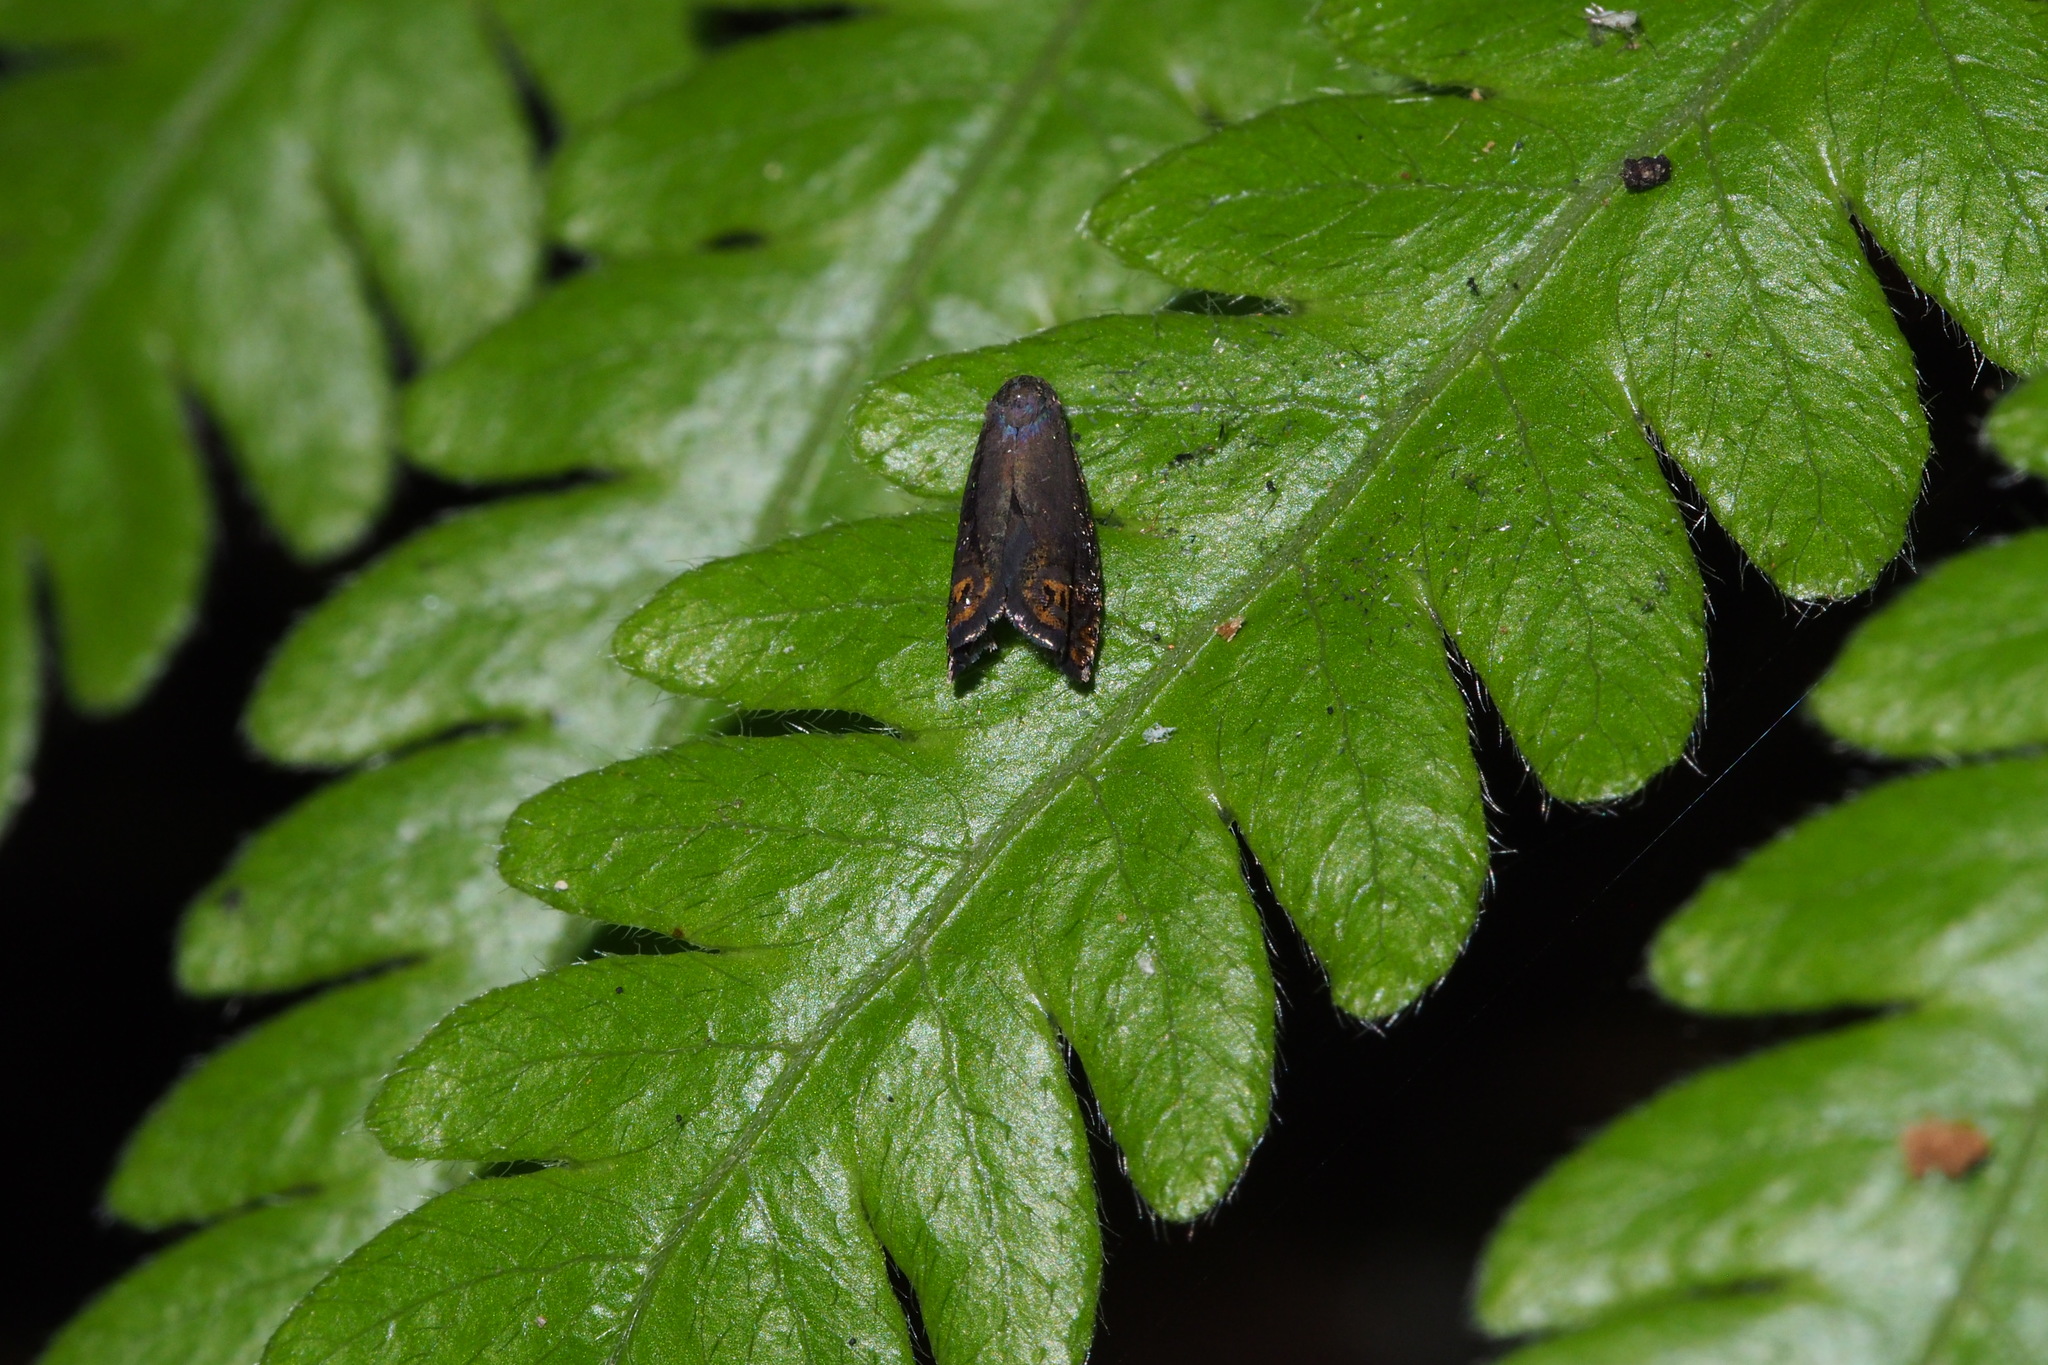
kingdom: Animalia
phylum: Arthropoda
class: Insecta
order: Lepidoptera
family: Tortricidae
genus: Cydia
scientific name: Cydia cryptomeriae
